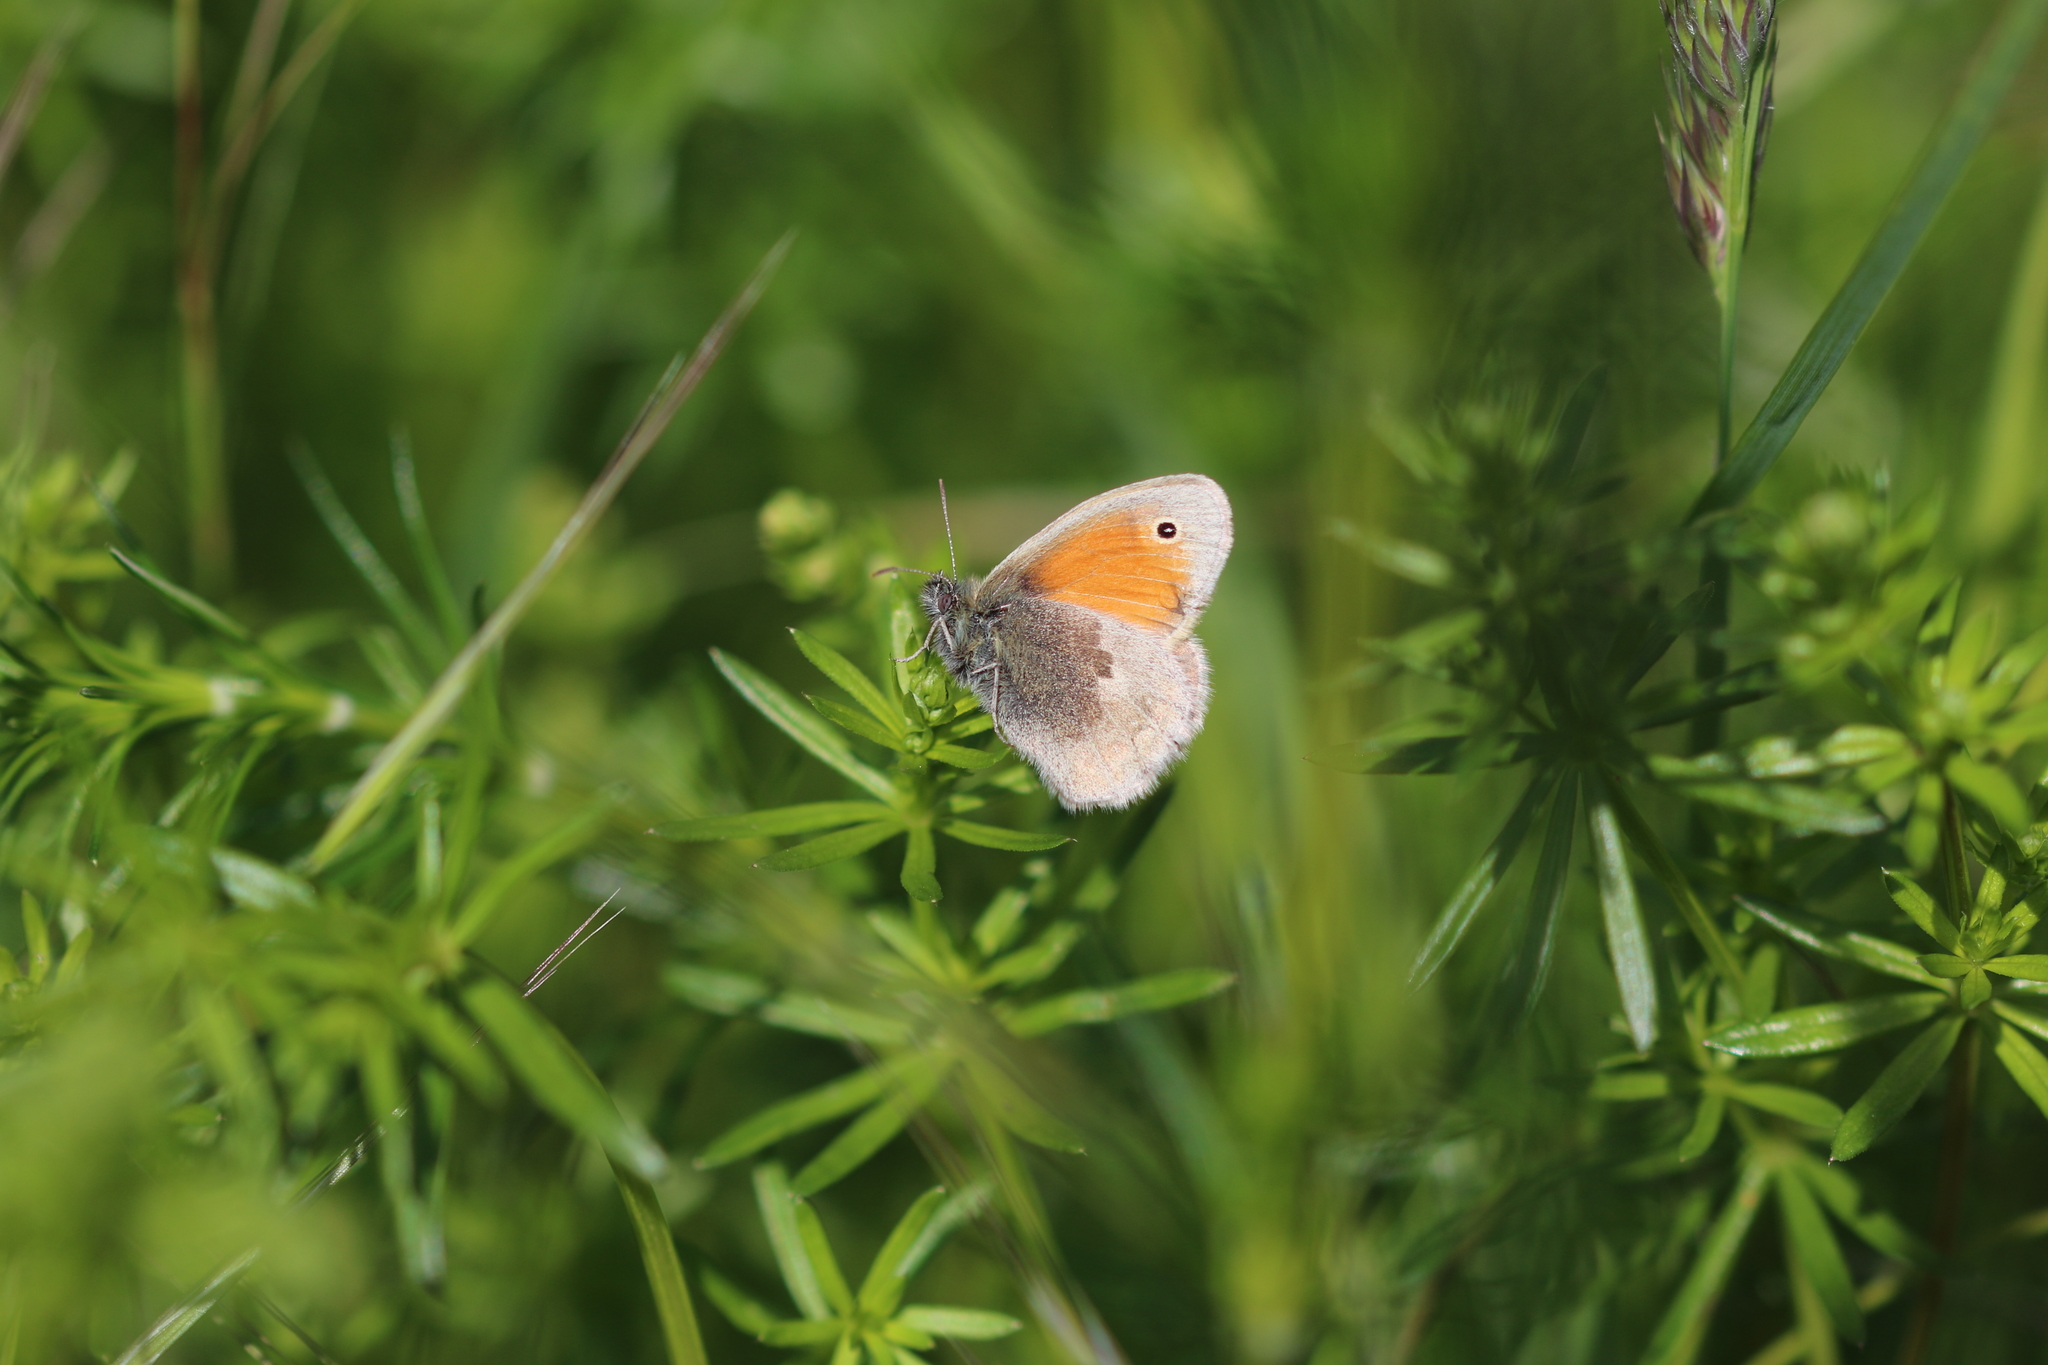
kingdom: Animalia
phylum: Arthropoda
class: Insecta
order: Lepidoptera
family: Nymphalidae
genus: Coenonympha
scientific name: Coenonympha pamphilus
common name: Small heath
